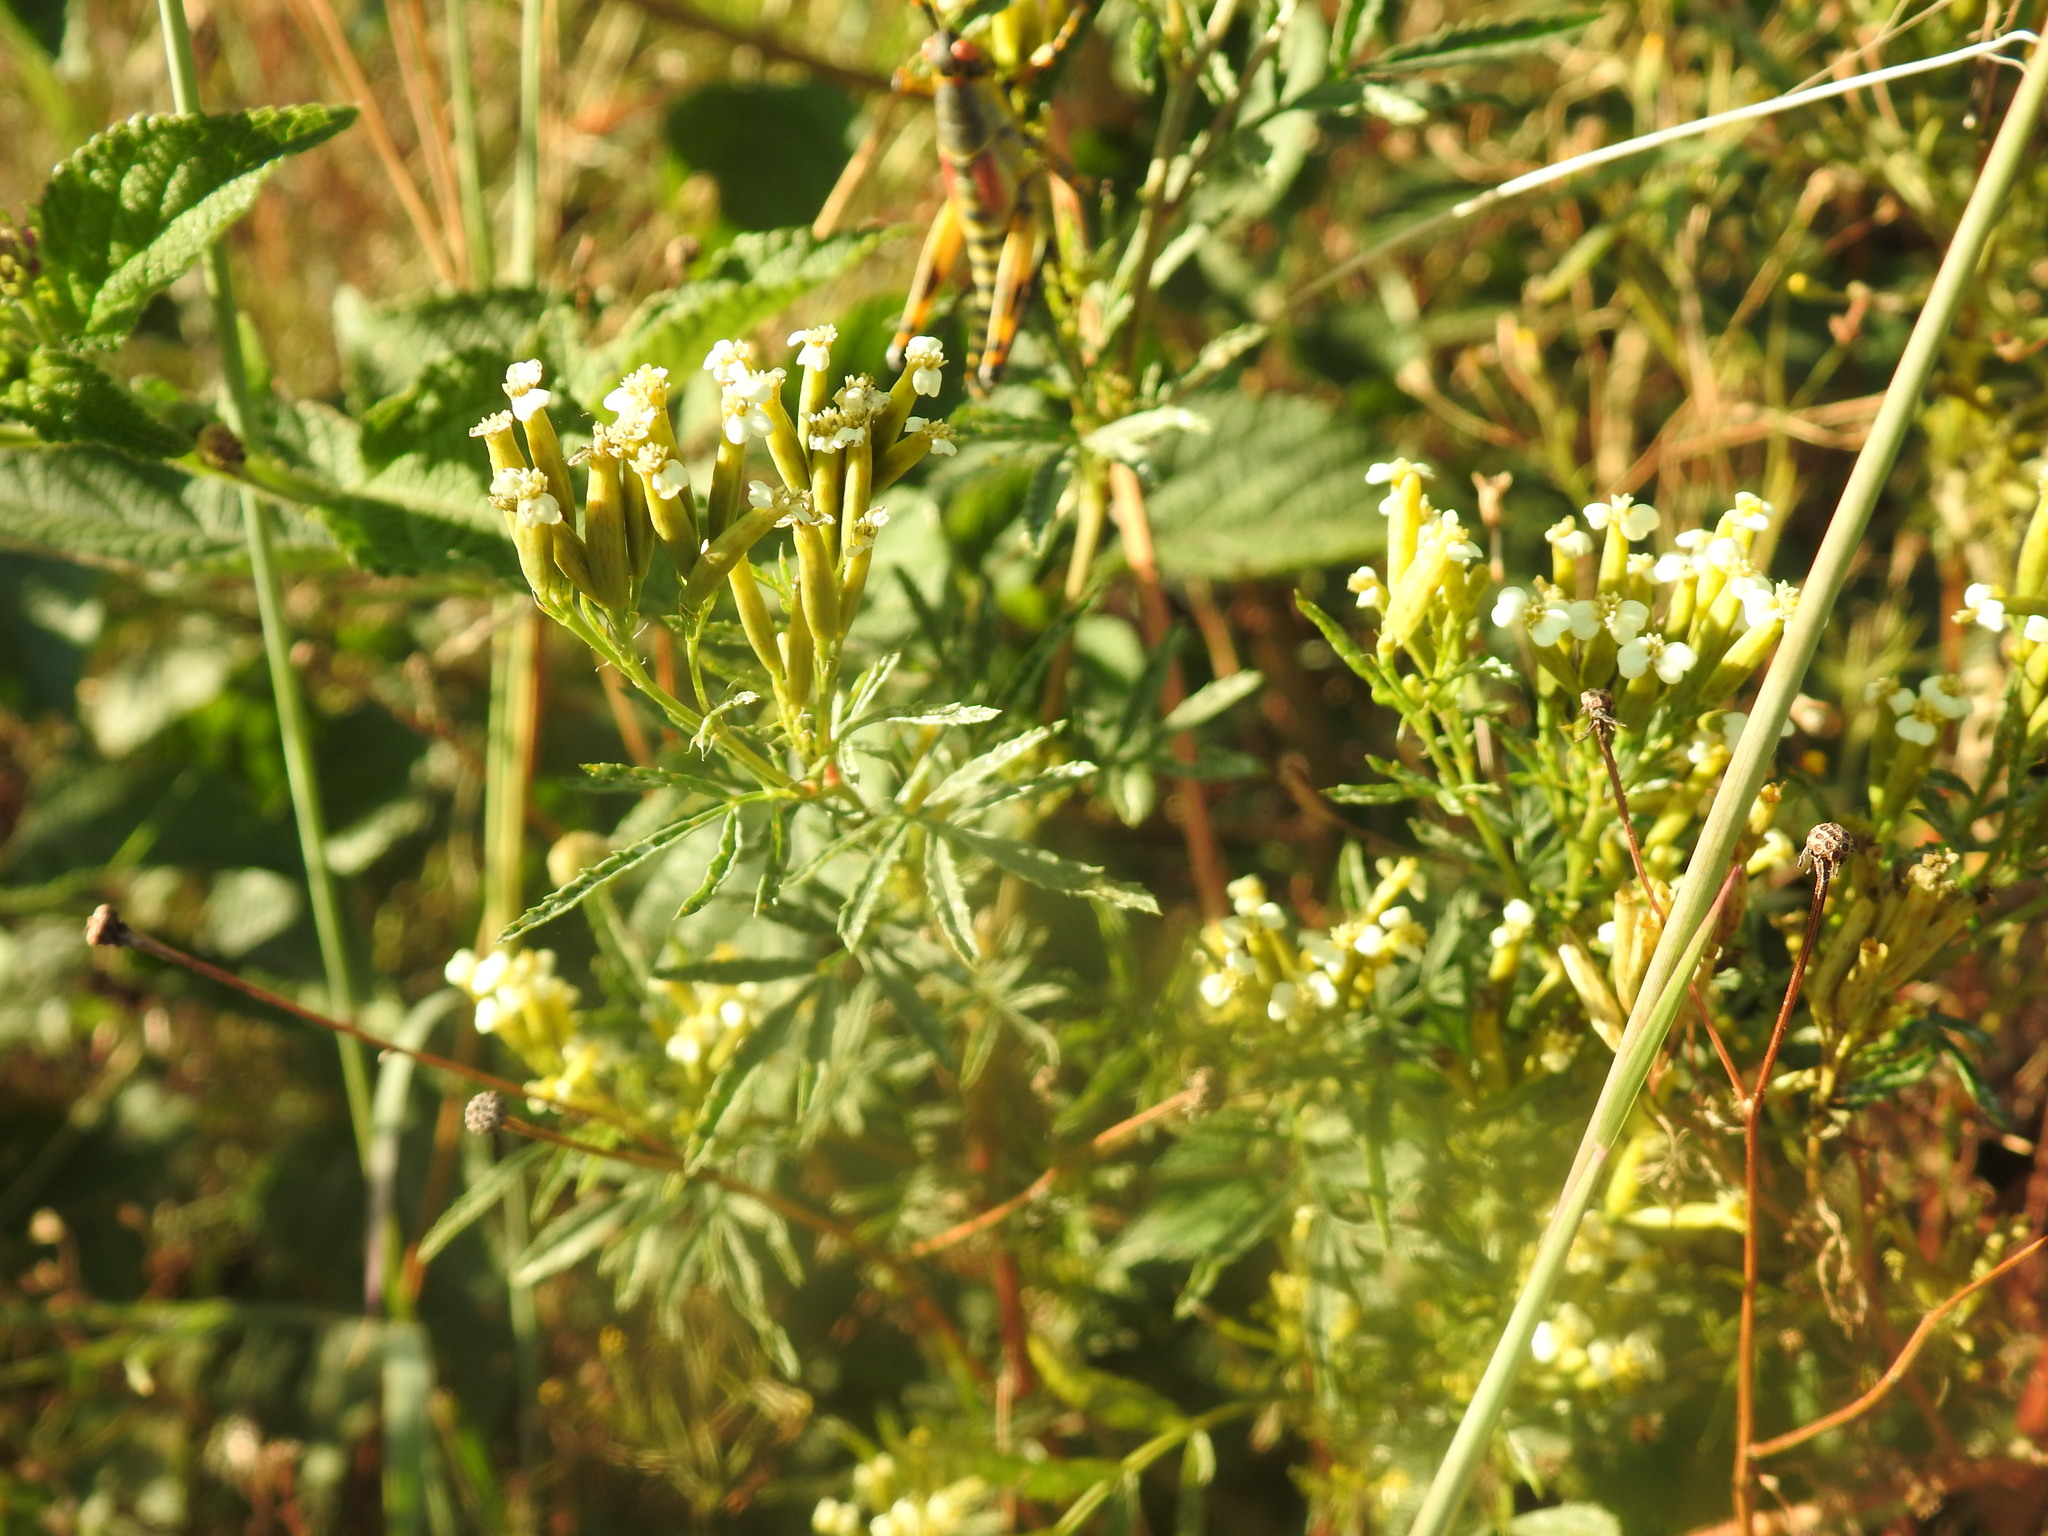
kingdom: Plantae
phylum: Tracheophyta
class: Magnoliopsida
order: Asterales
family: Asteraceae
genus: Tagetes
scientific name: Tagetes minuta
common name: Muster john henry
